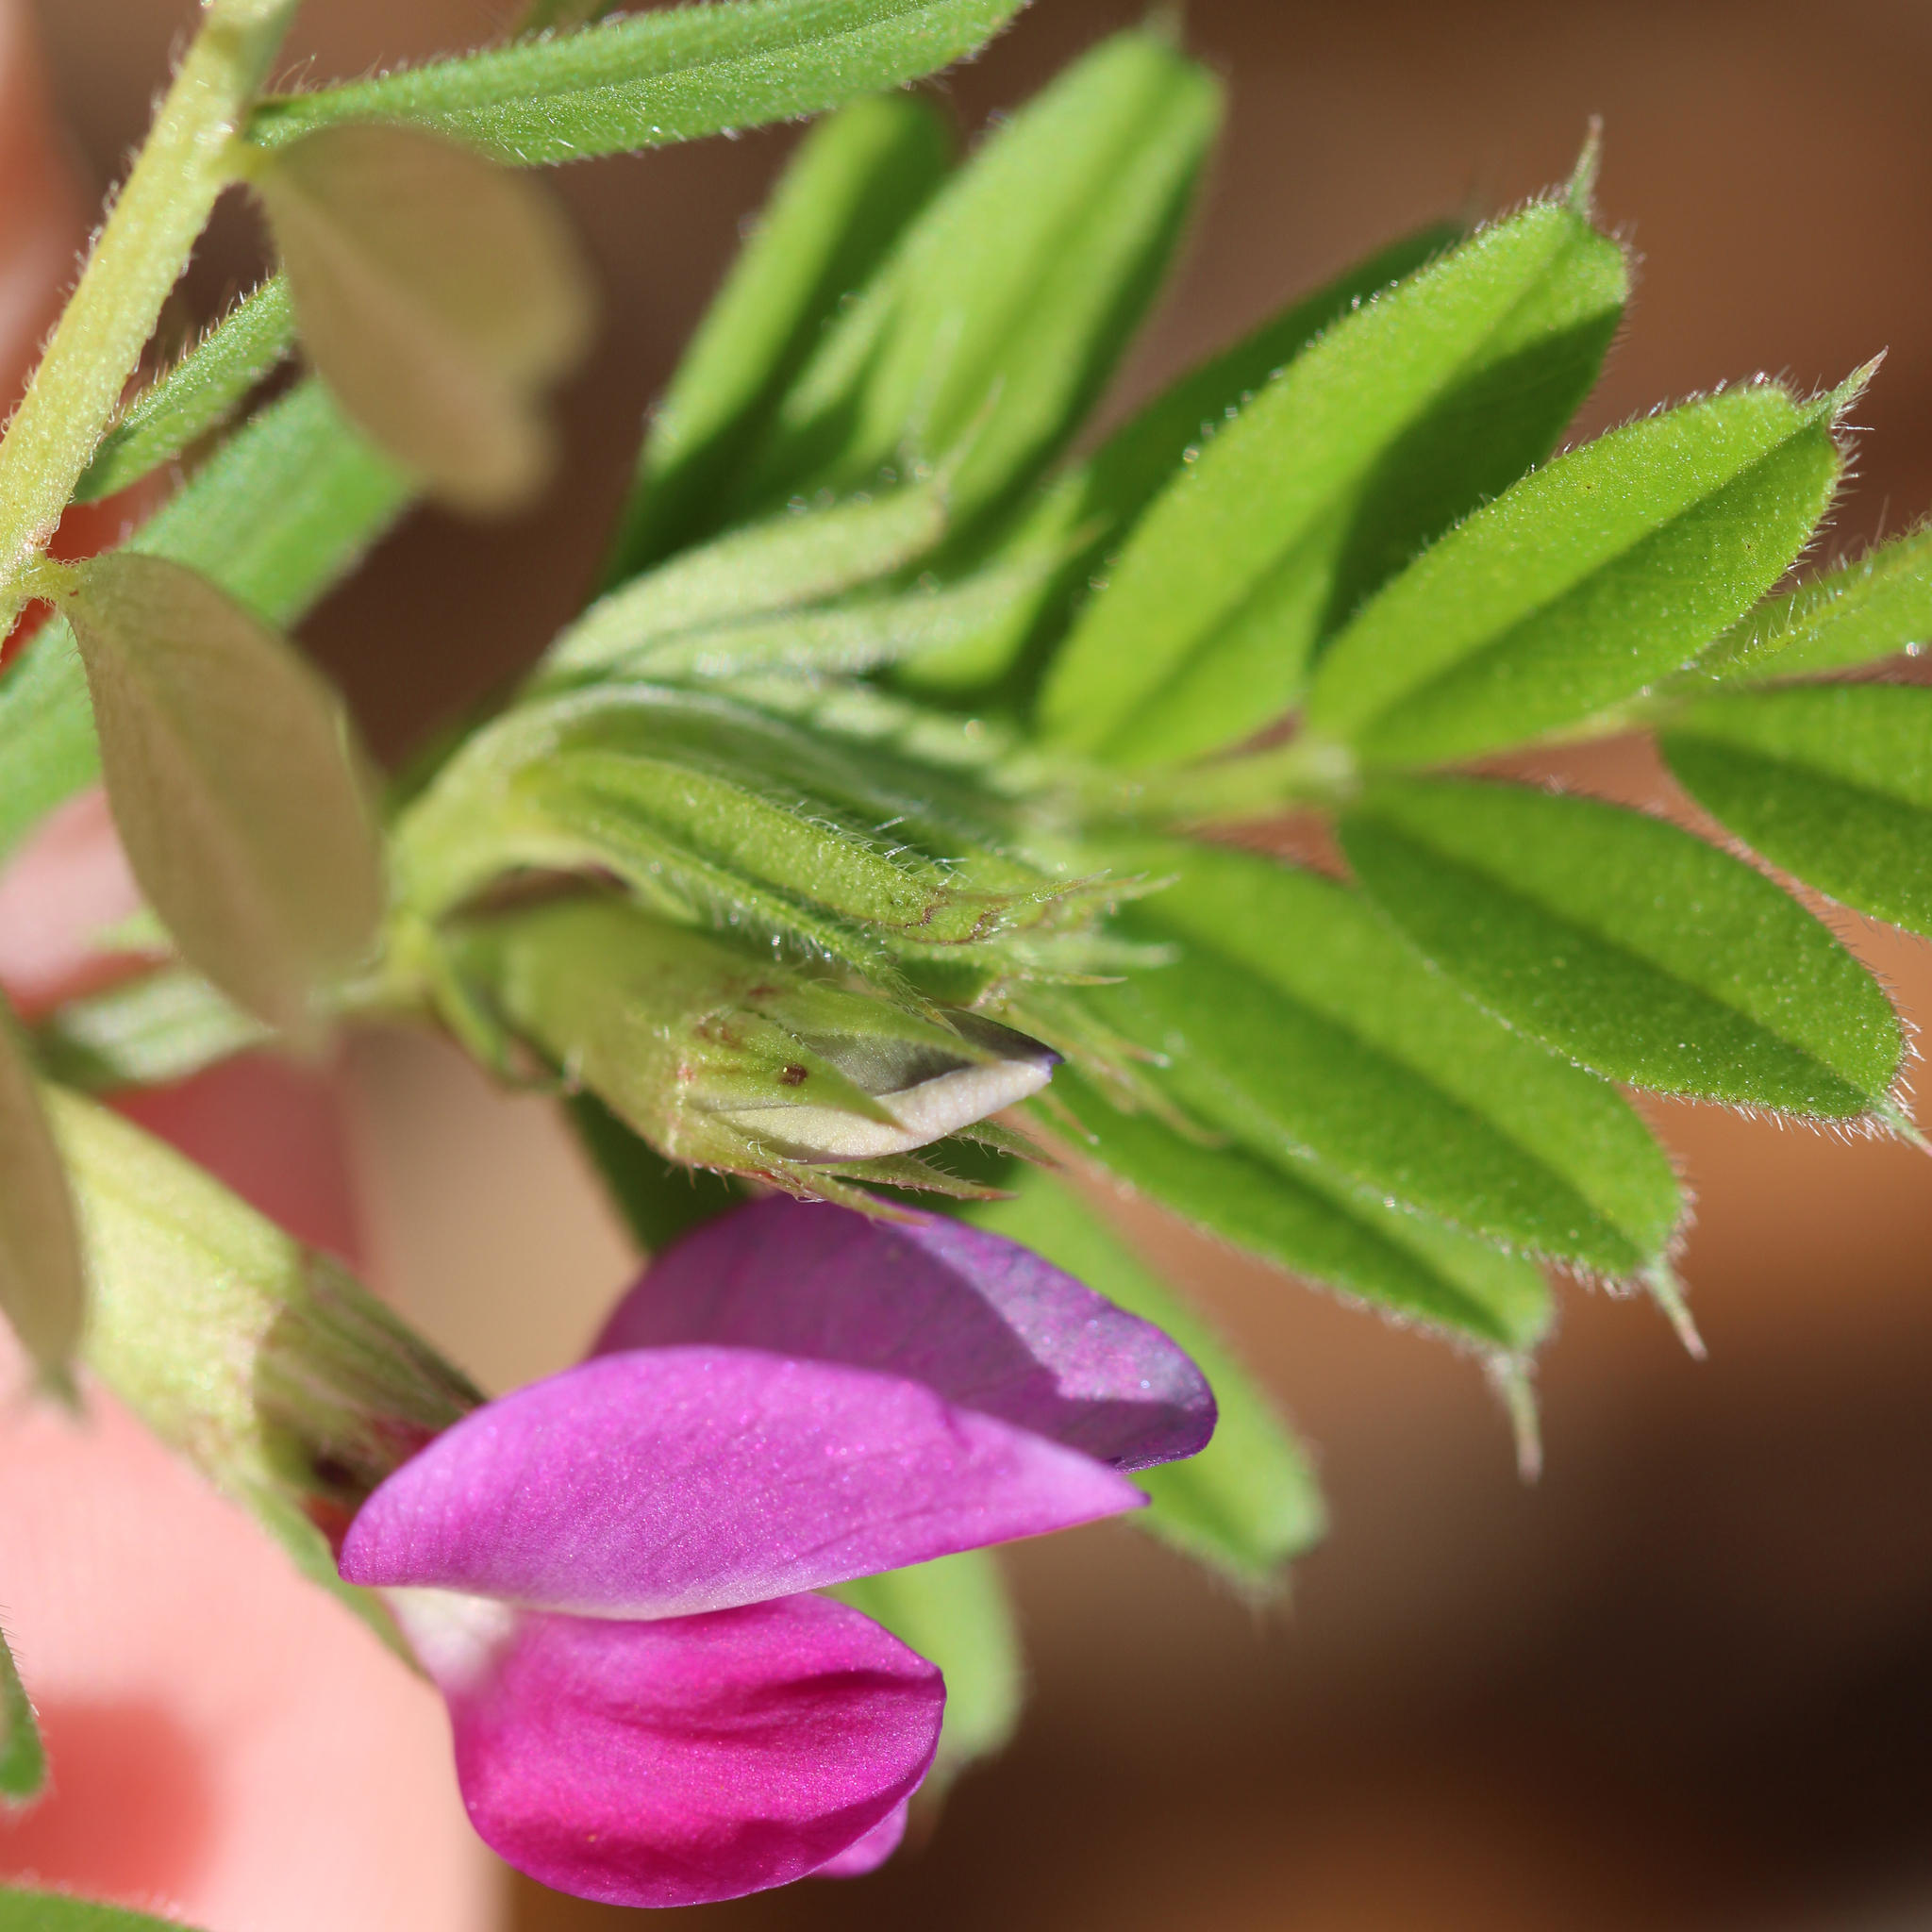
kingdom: Plantae
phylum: Tracheophyta
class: Magnoliopsida
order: Fabales
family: Fabaceae
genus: Vicia
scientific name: Vicia sativa
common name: Garden vetch
